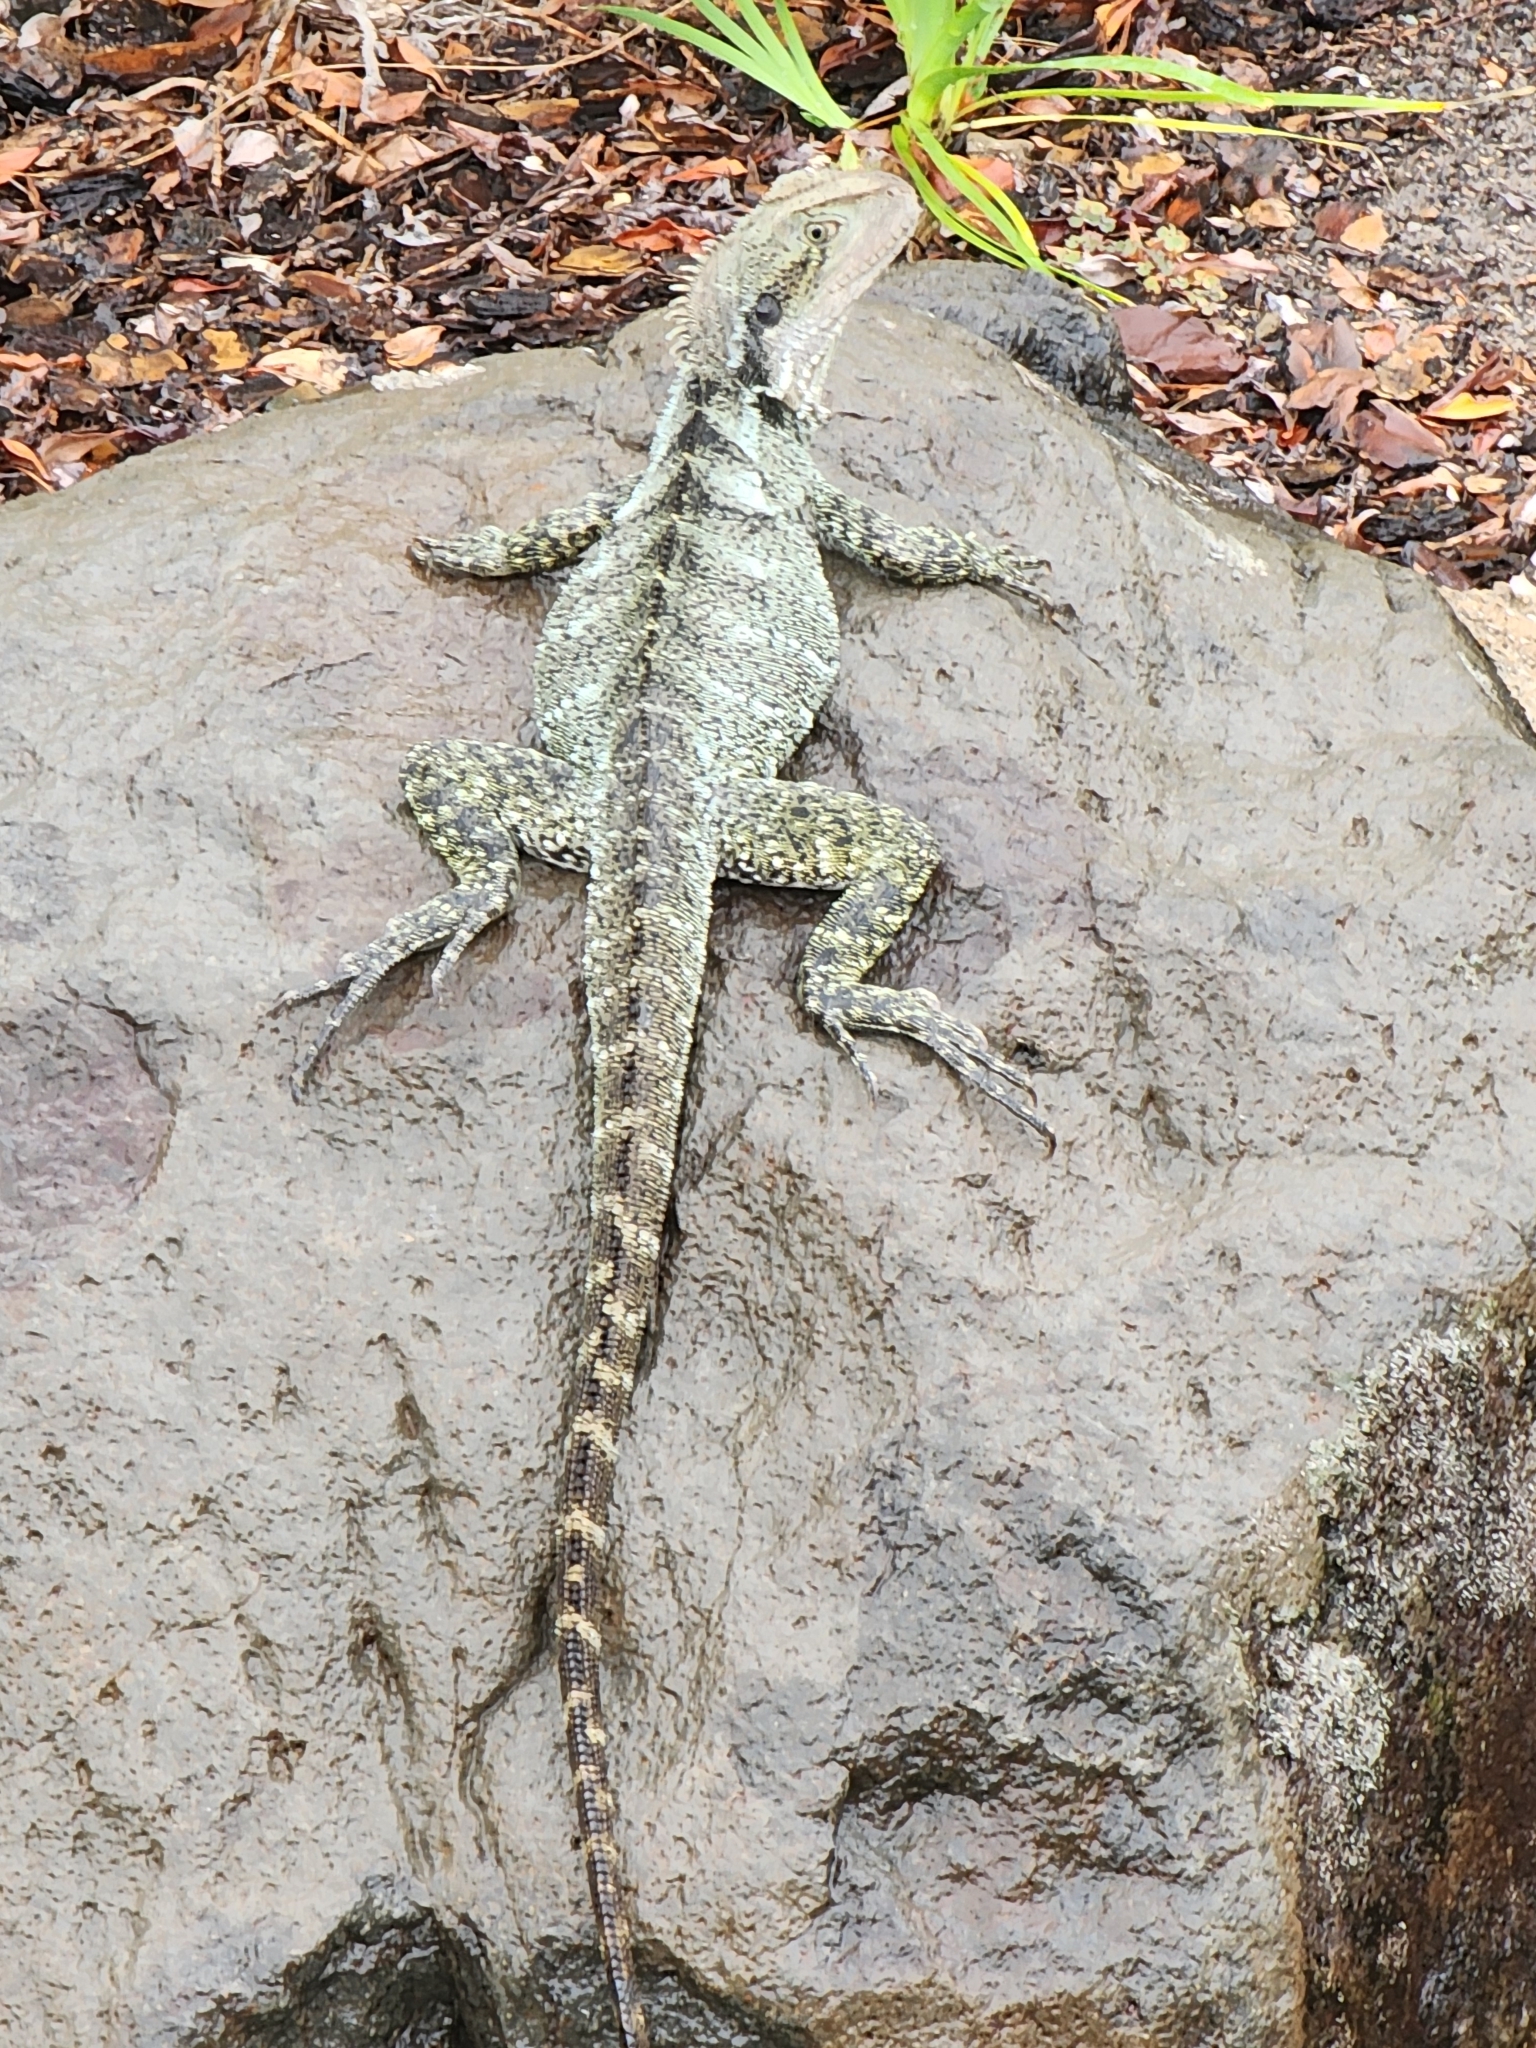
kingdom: Animalia
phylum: Chordata
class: Squamata
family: Agamidae
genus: Intellagama
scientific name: Intellagama lesueurii
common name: Eastern water dragon
